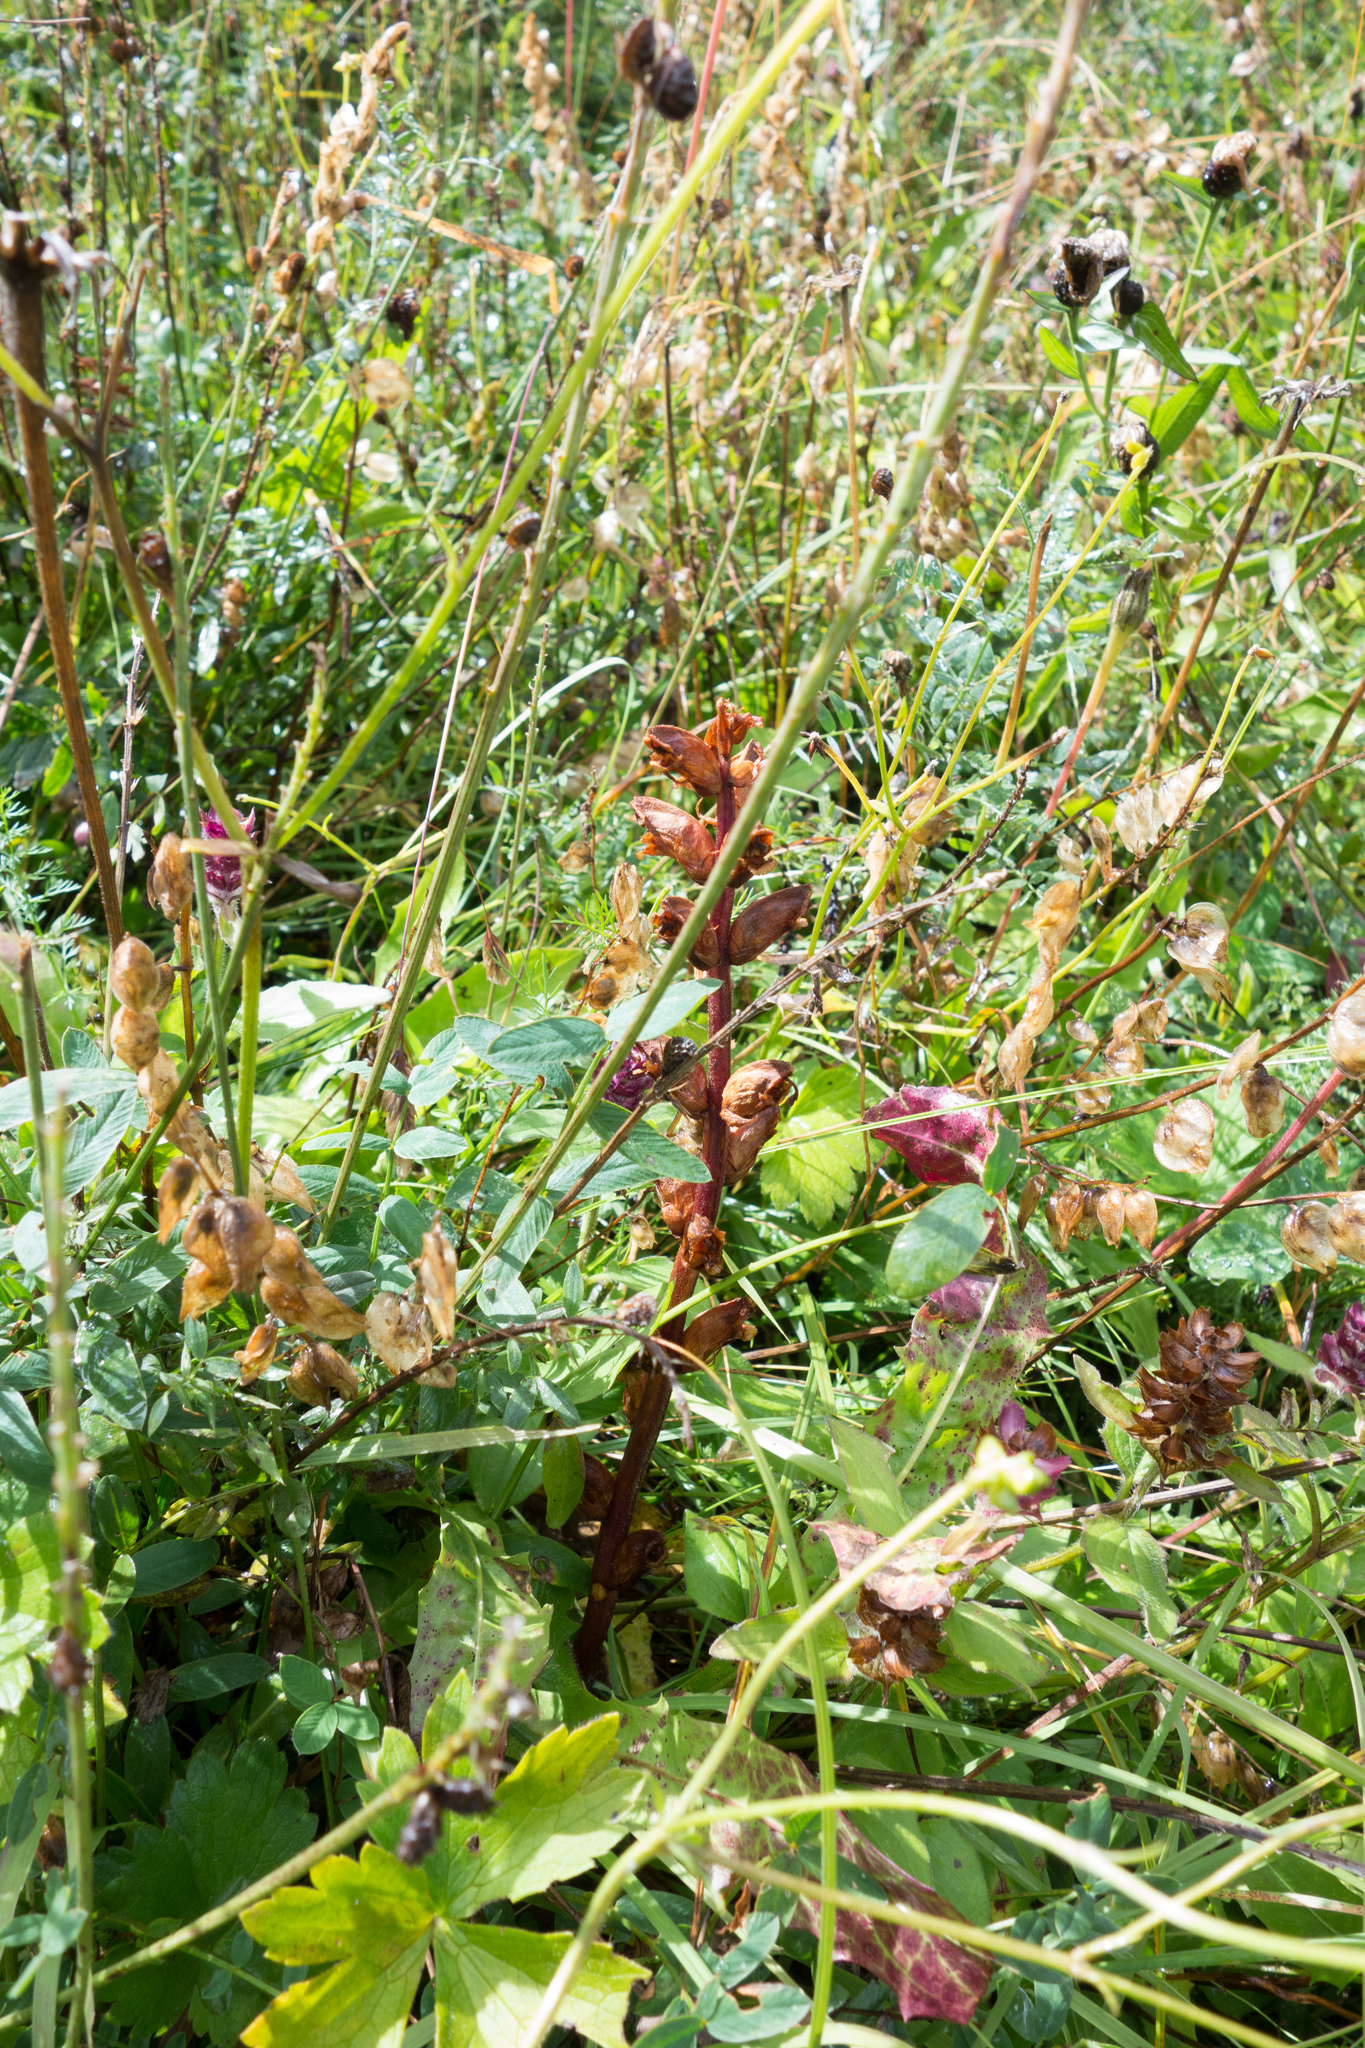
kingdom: Plantae
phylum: Tracheophyta
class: Magnoliopsida
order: Lamiales
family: Orobanchaceae
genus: Orobanche
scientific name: Orobanche gracilis
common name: Slender broomrape
